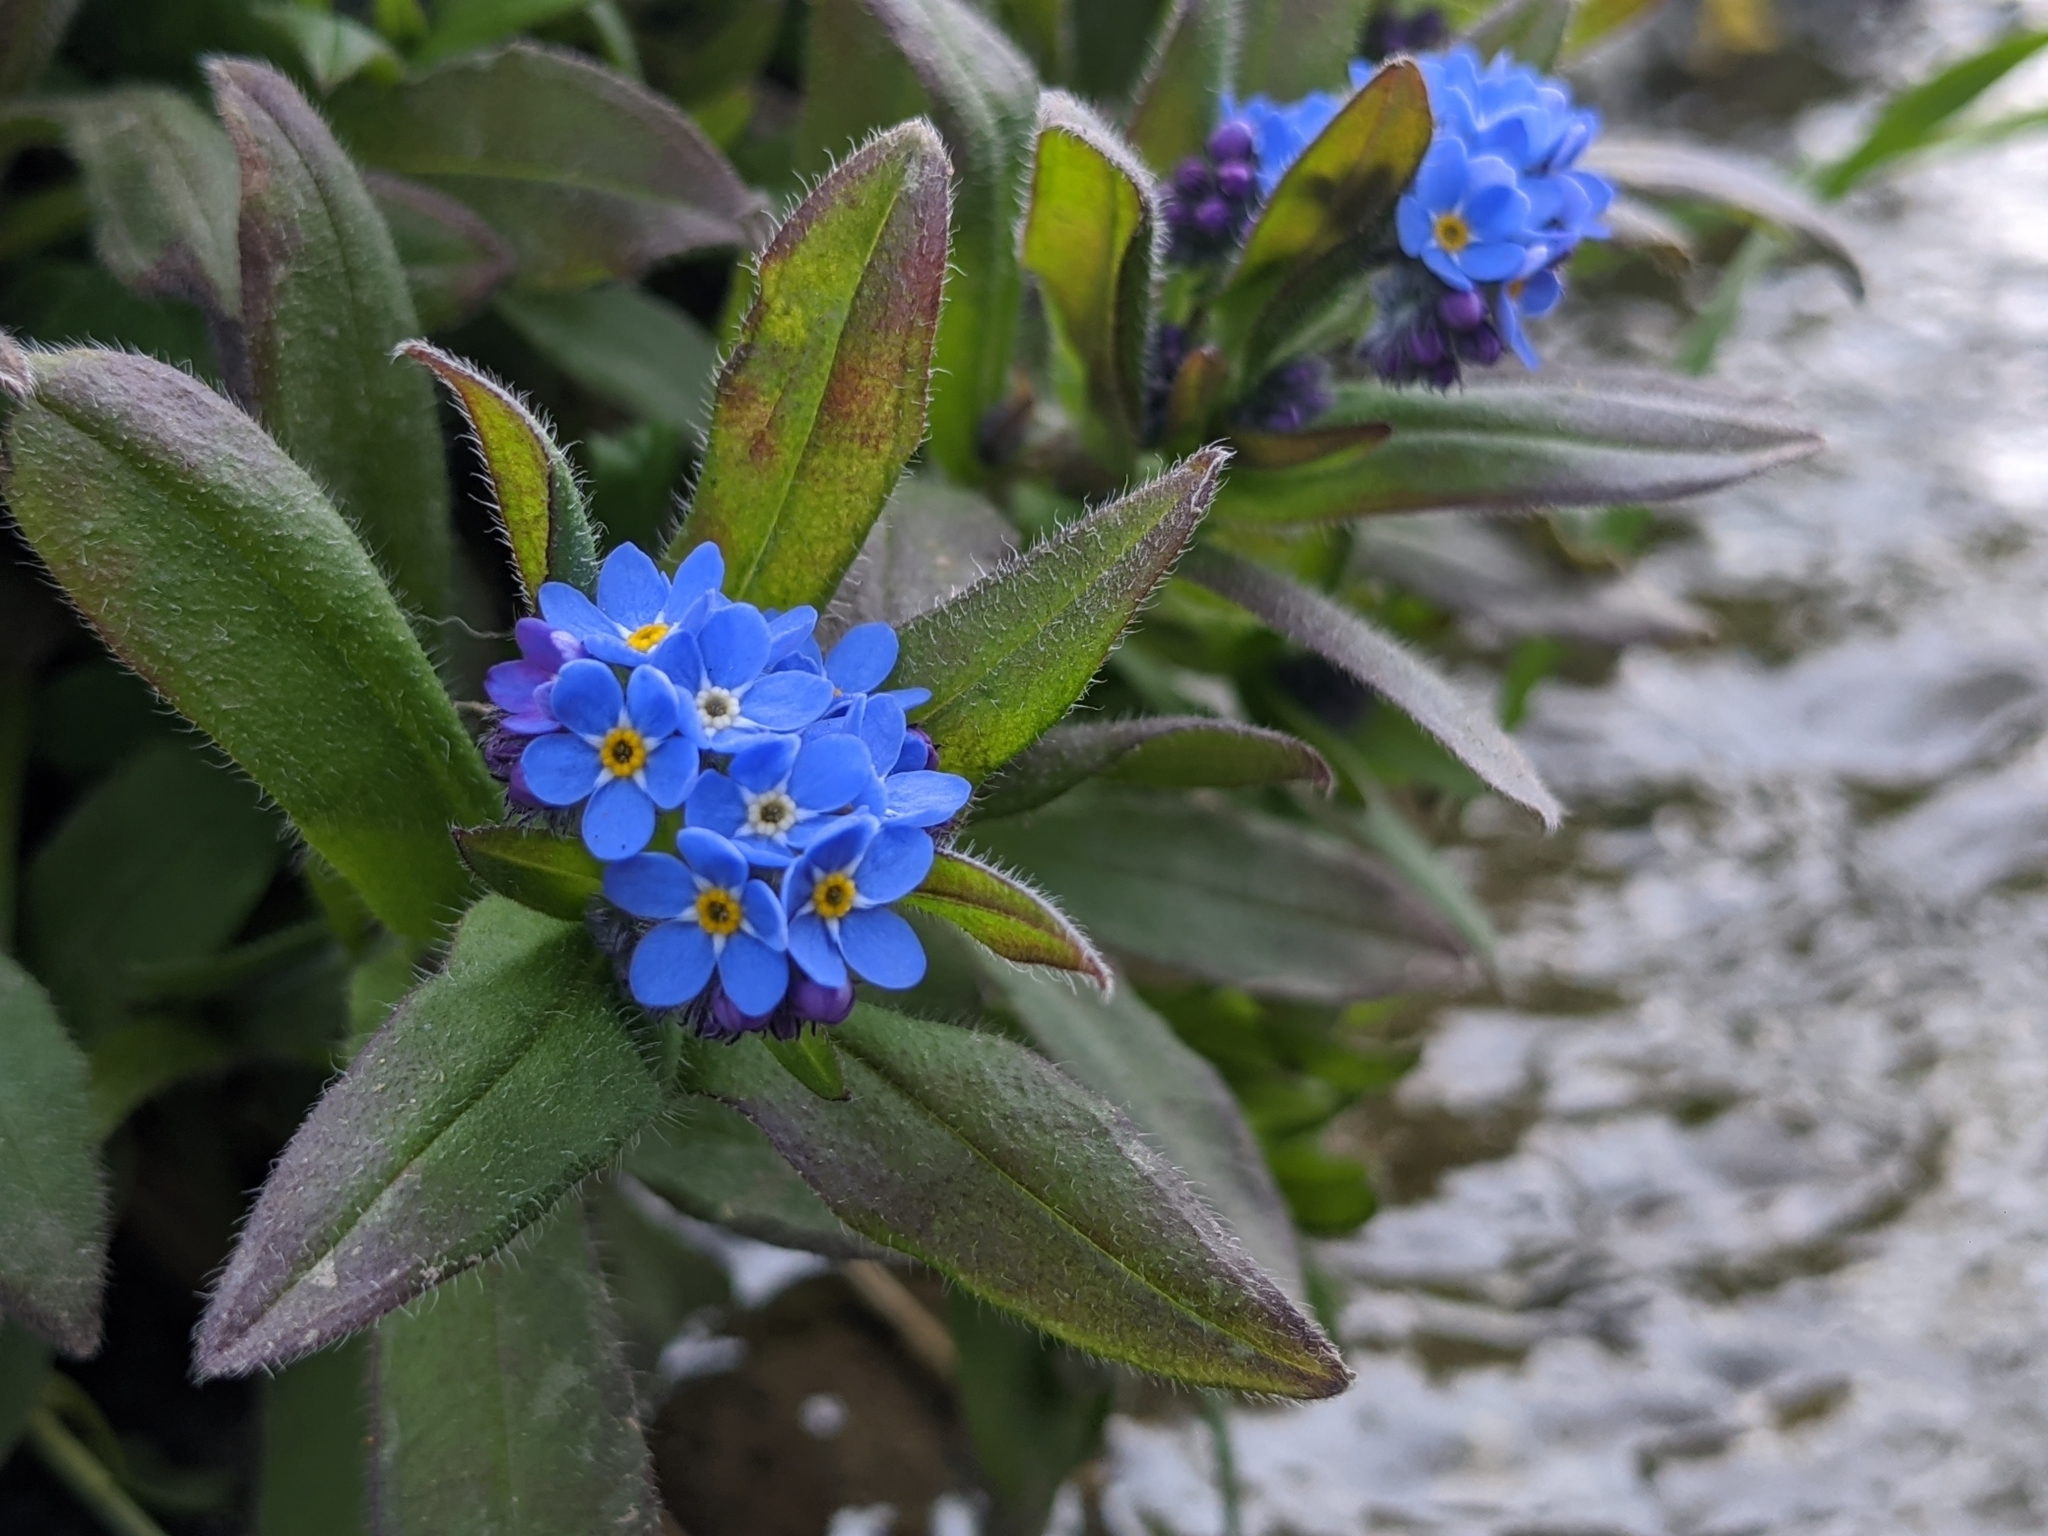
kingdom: Plantae
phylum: Tracheophyta
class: Magnoliopsida
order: Boraginales
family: Boraginaceae
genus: Myosotis
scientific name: Myosotis sylvatica
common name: Wood forget-me-not
